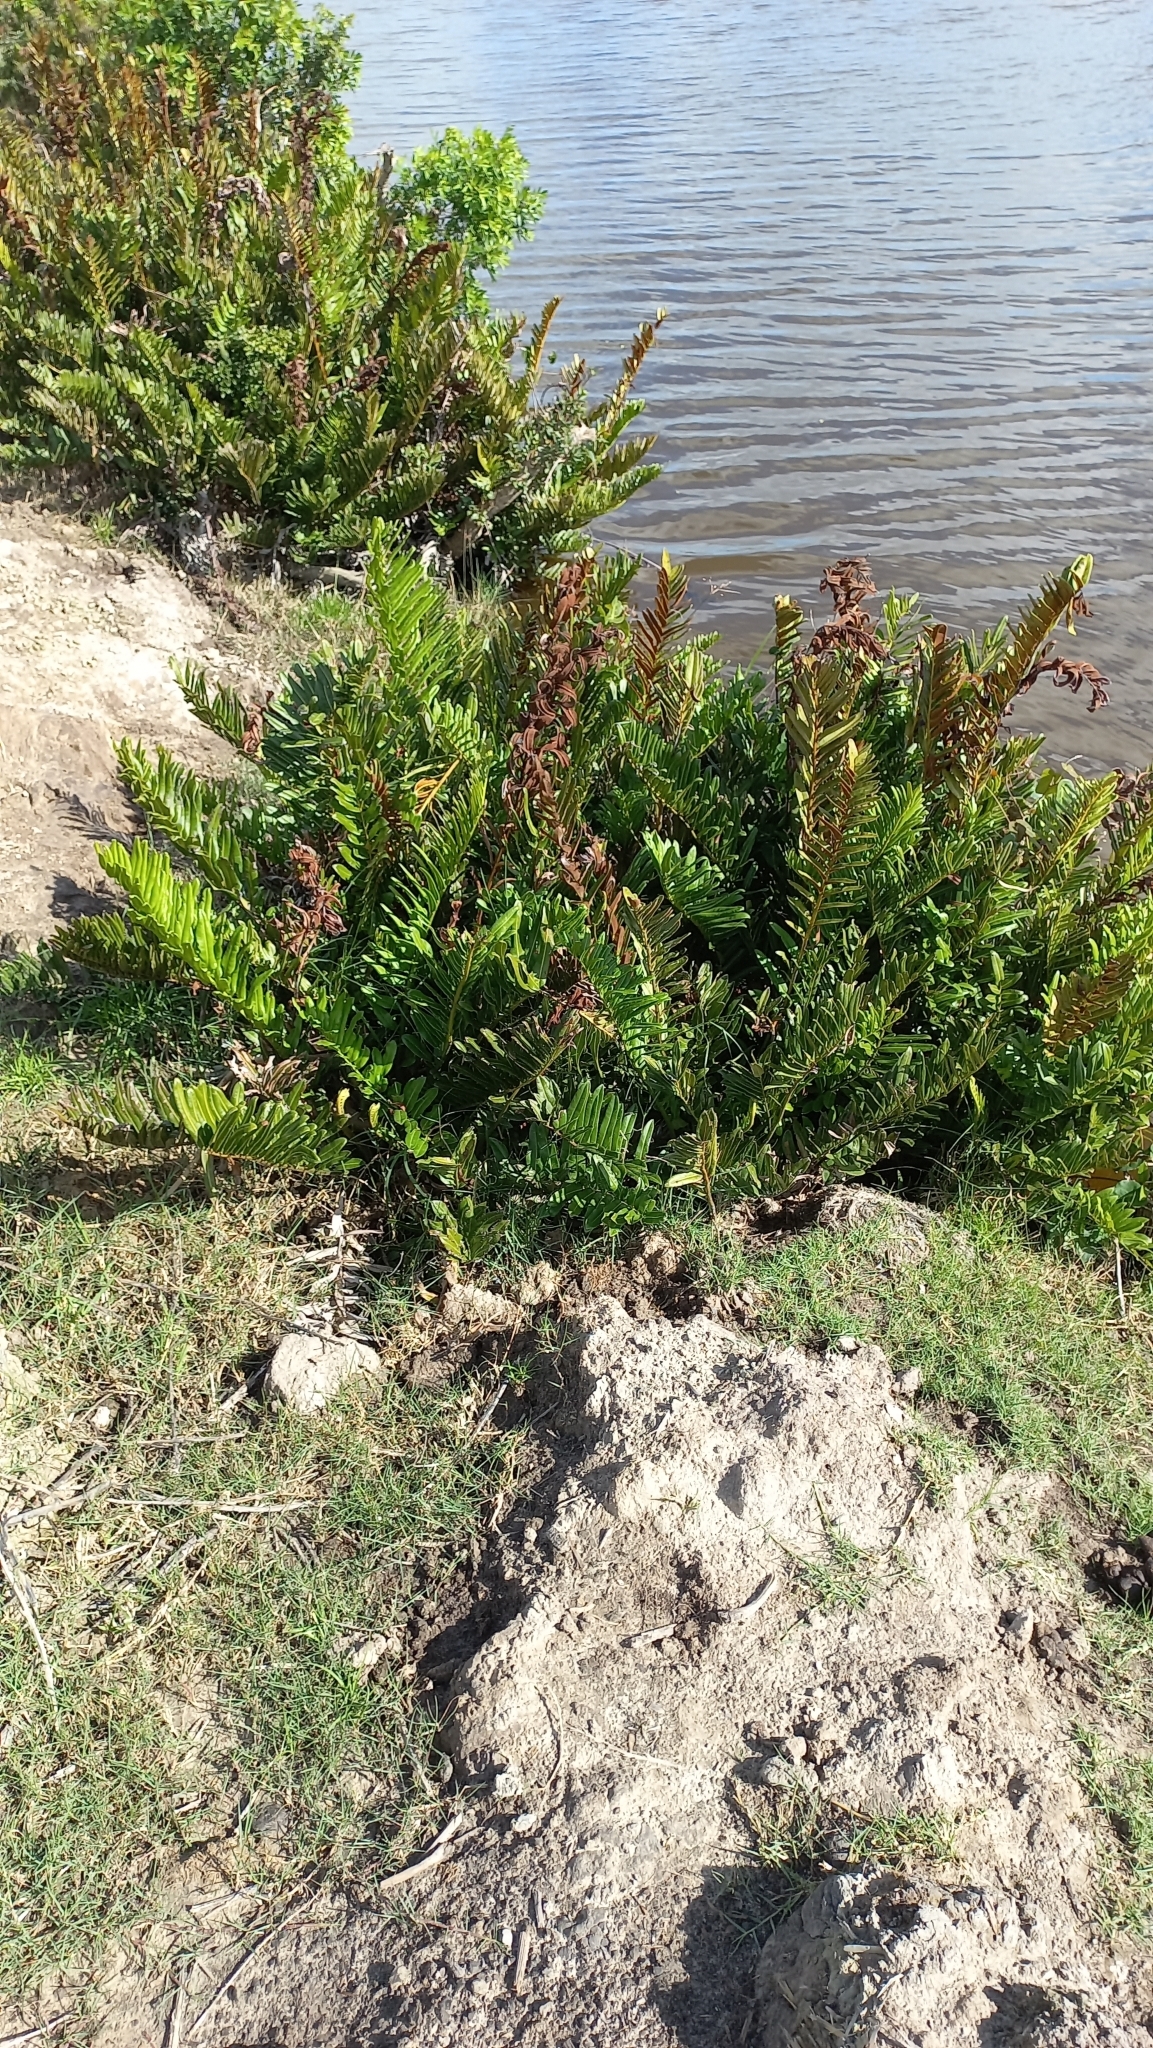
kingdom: Plantae
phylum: Tracheophyta
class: Polypodiopsida
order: Polypodiales
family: Pteridaceae
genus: Acrostichum
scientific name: Acrostichum danaeifolium
